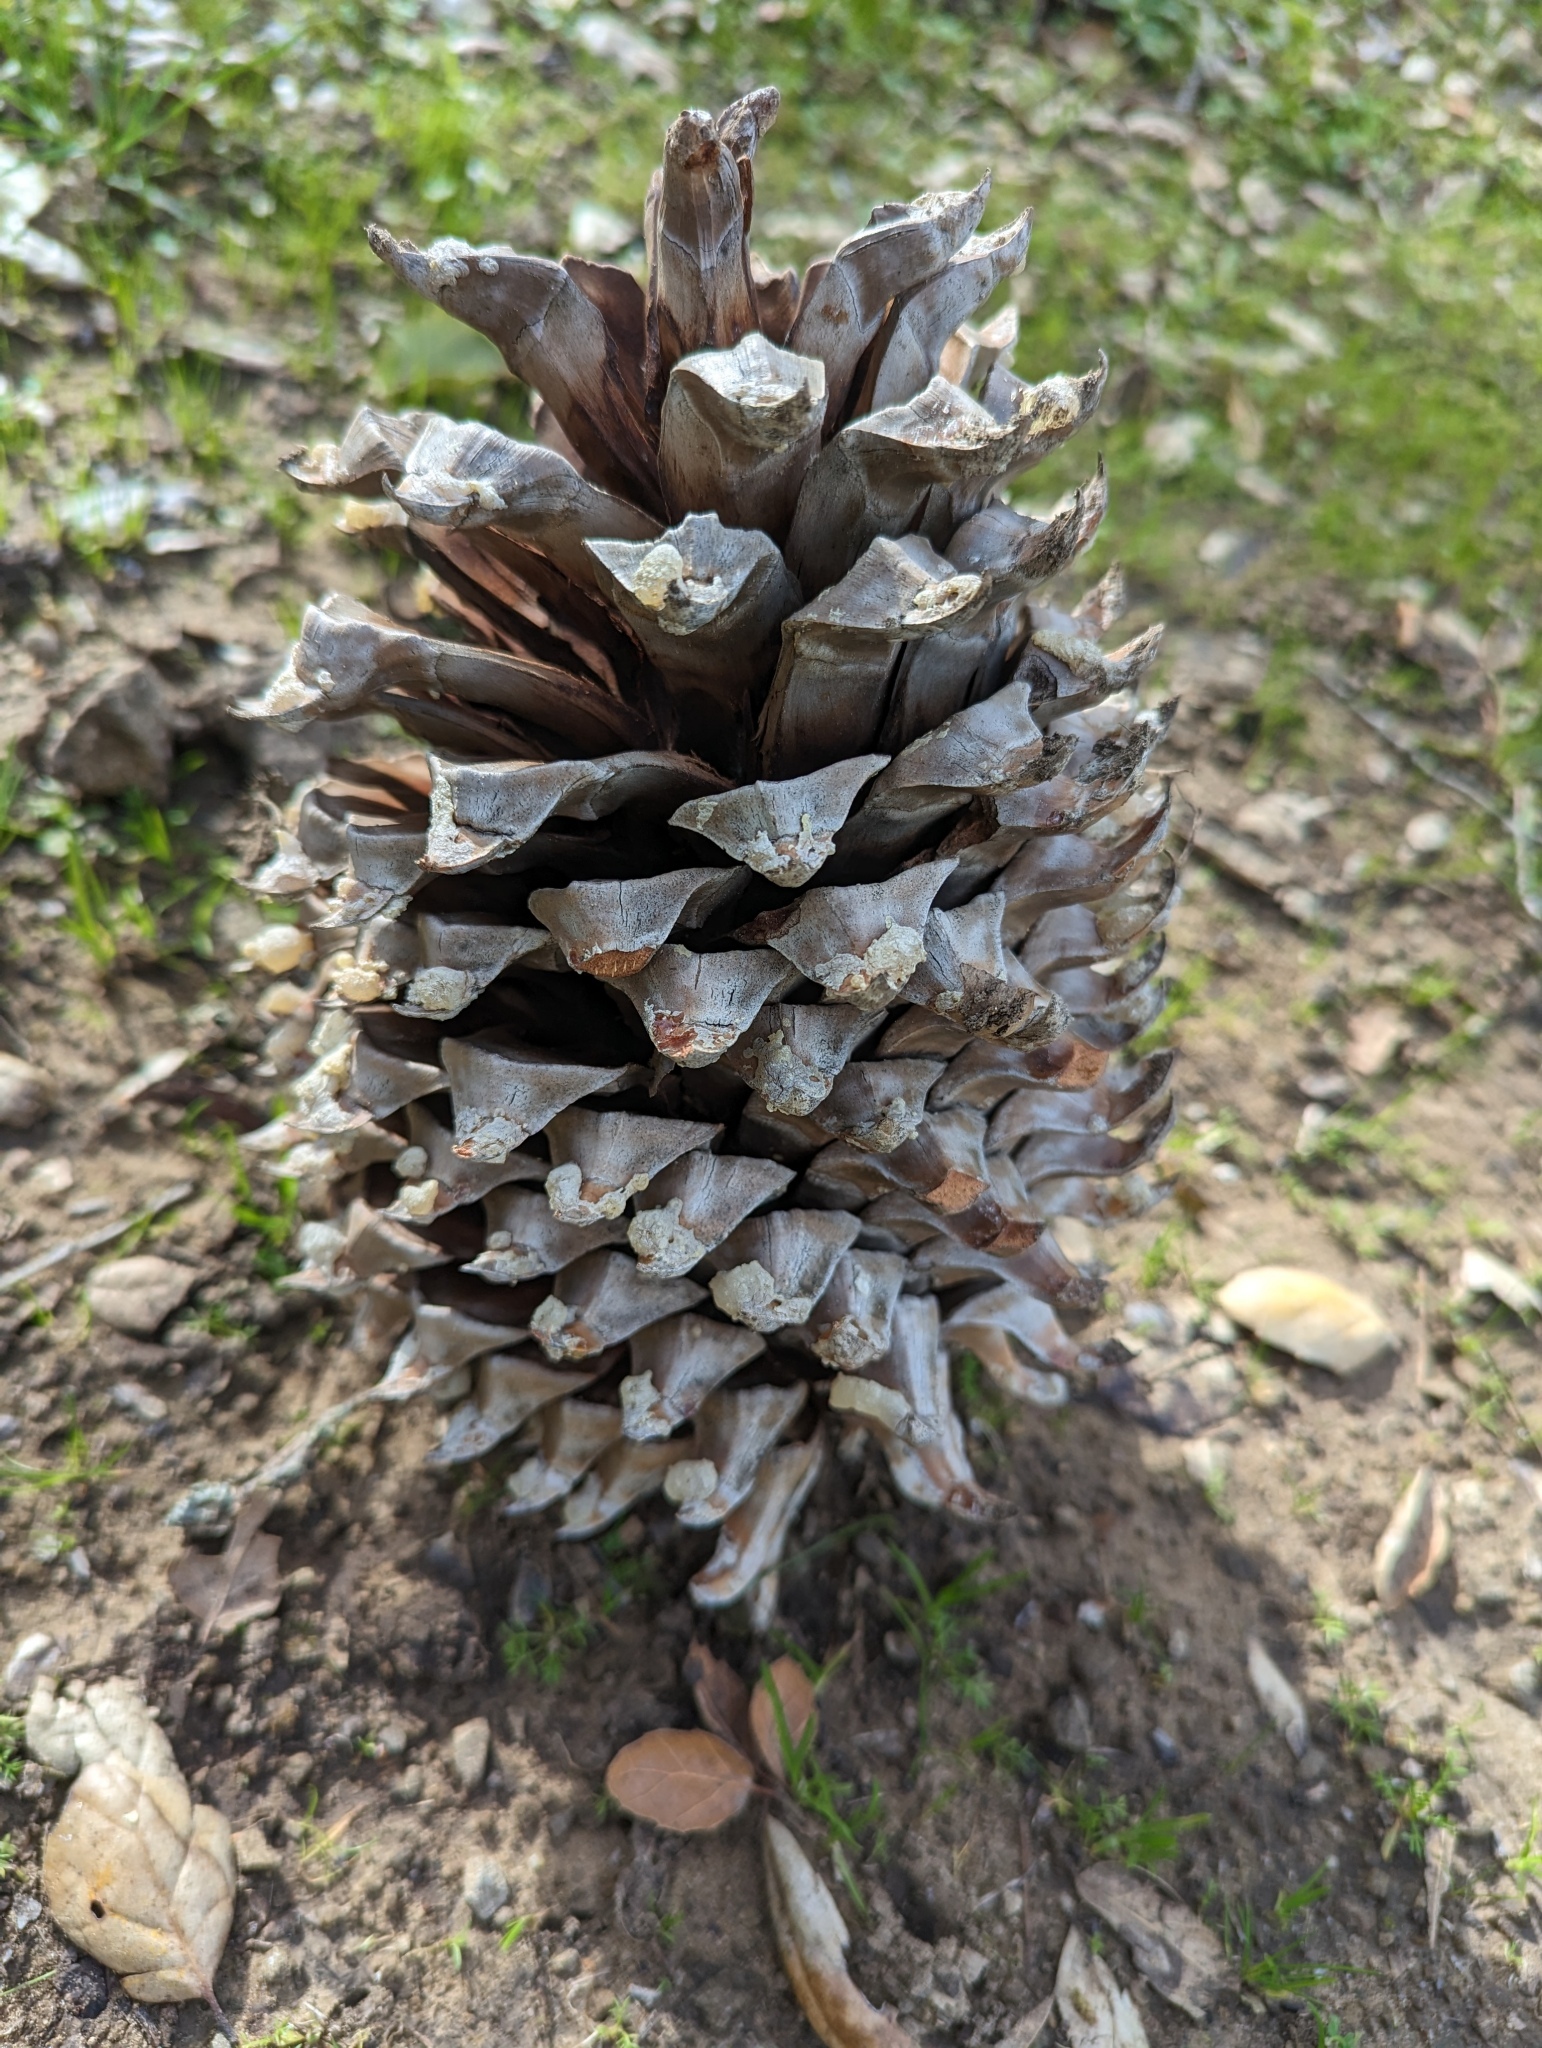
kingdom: Plantae
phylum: Tracheophyta
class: Pinopsida
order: Pinales
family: Pinaceae
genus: Pinus
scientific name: Pinus sabiniana
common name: Bull pine
